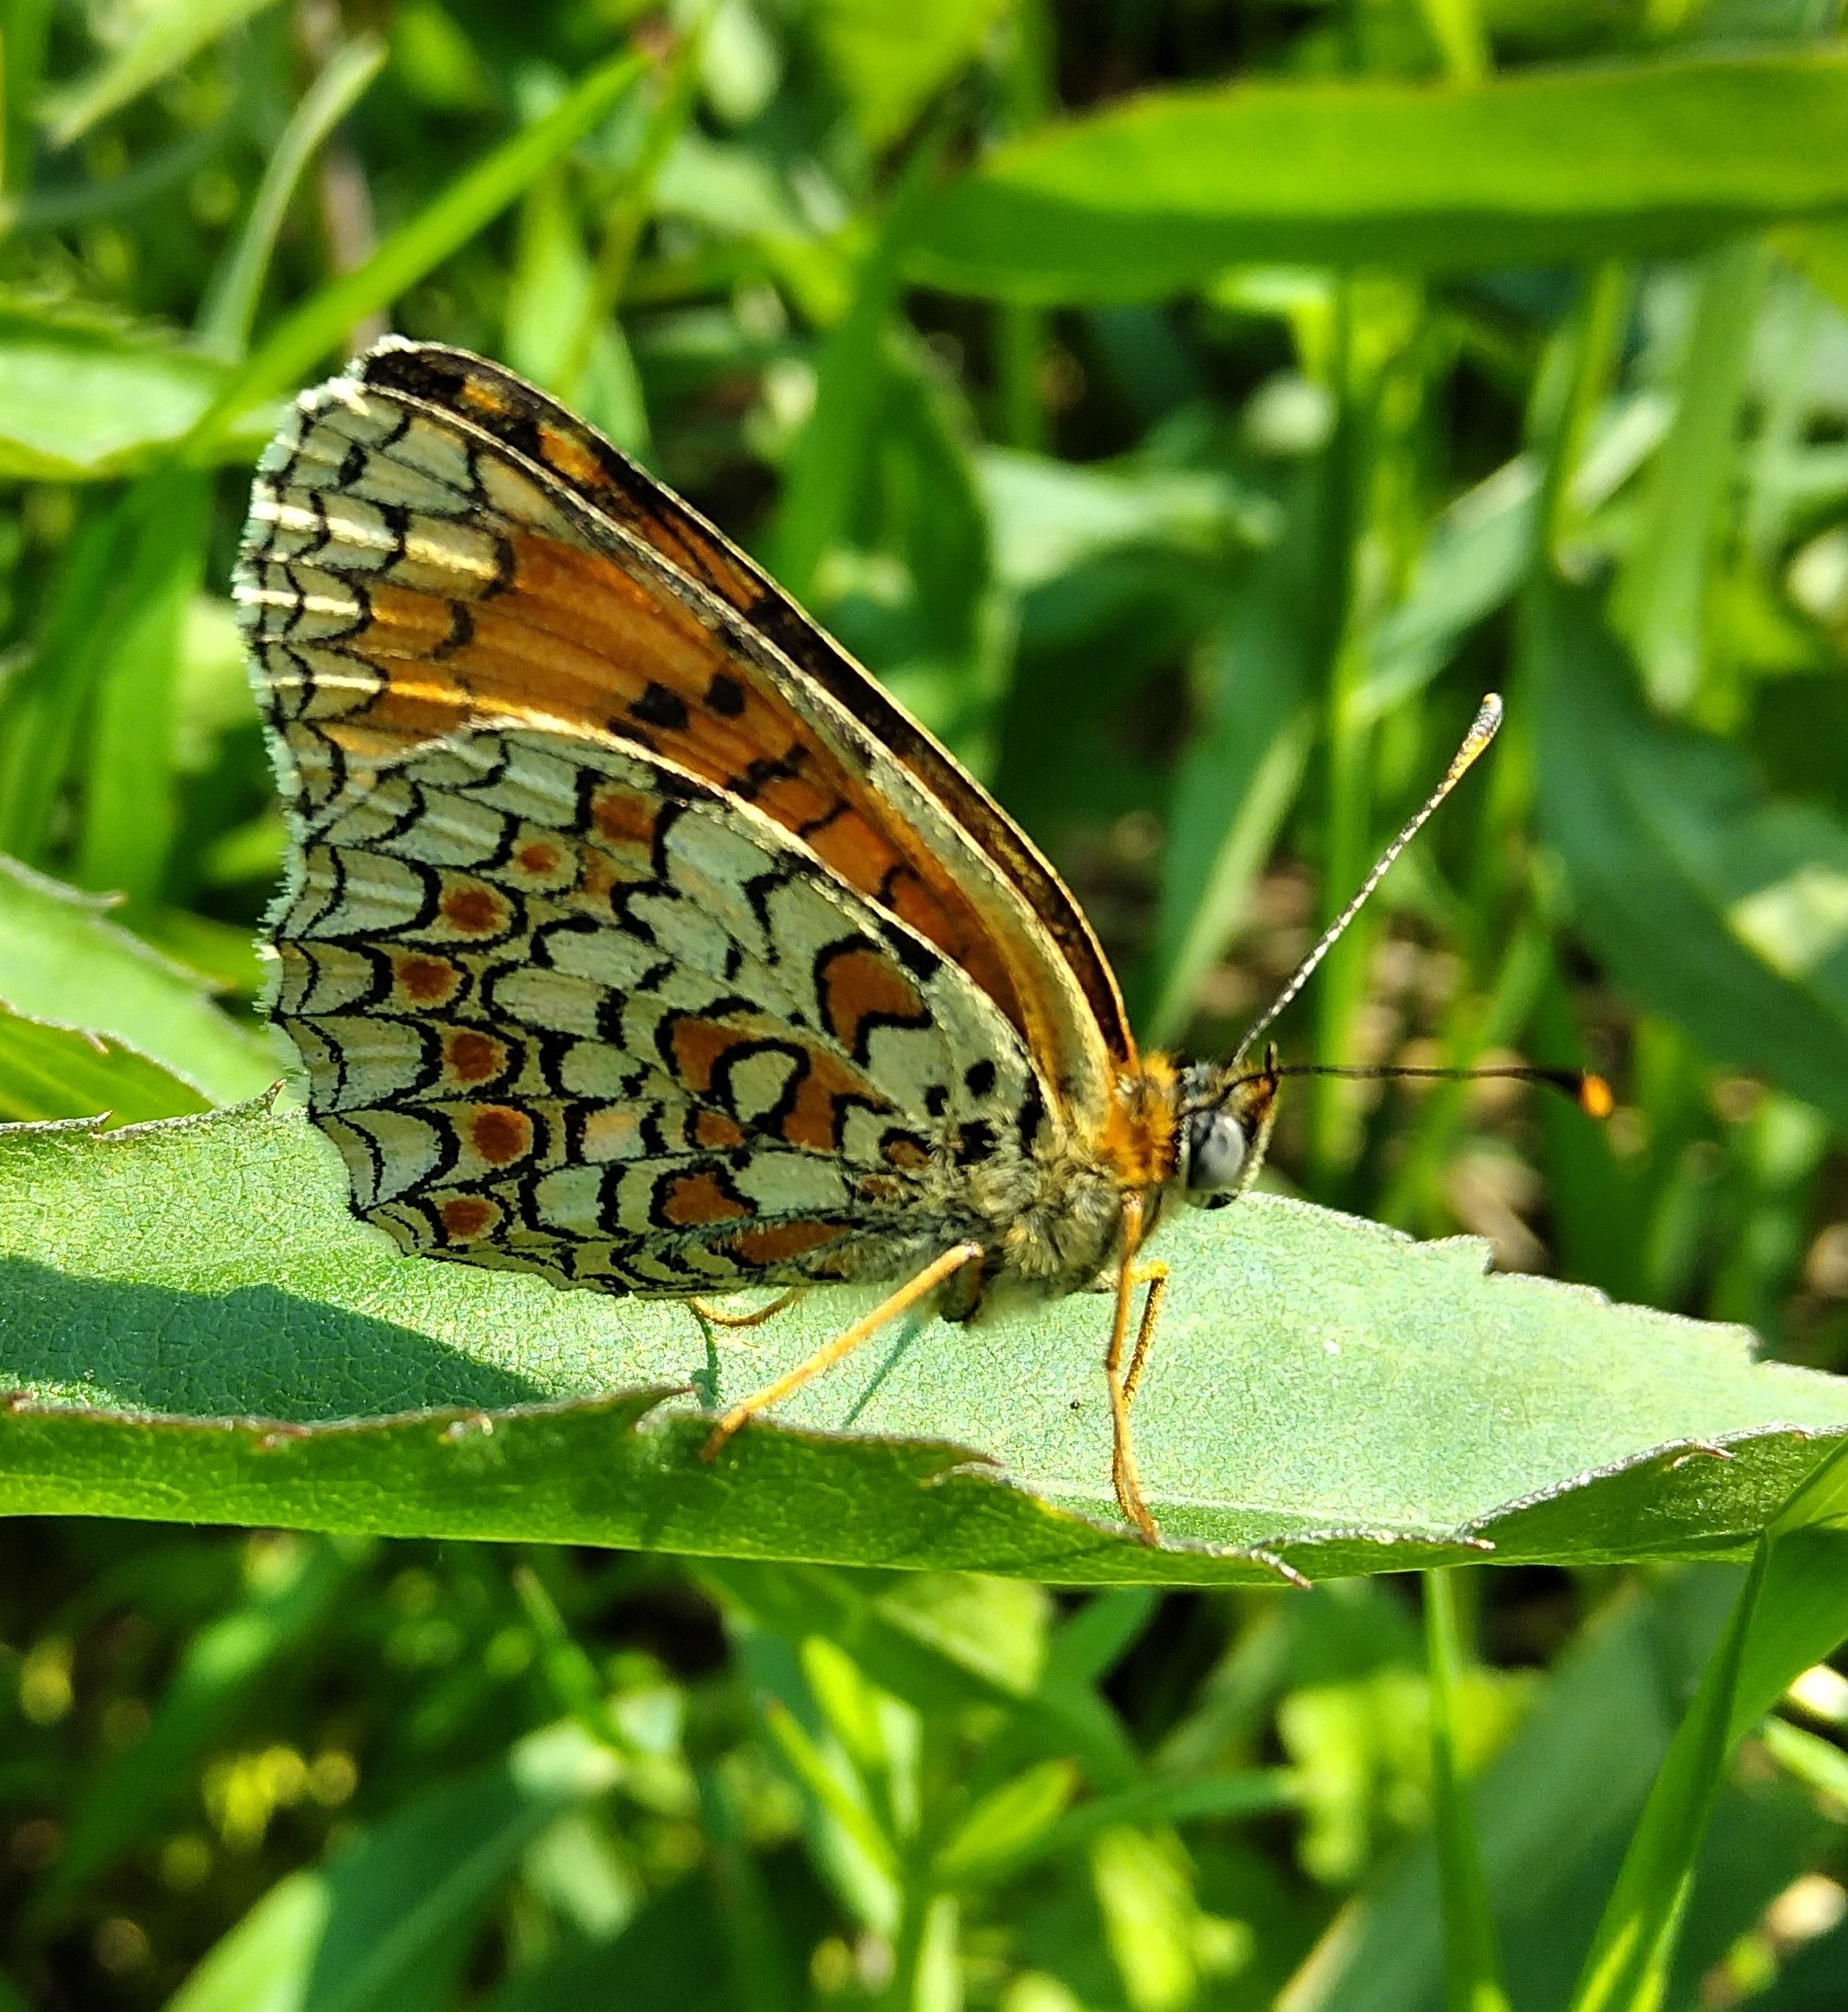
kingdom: Animalia
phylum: Arthropoda
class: Insecta
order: Lepidoptera
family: Nymphalidae
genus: Melitaea
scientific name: Melitaea phoebe
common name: Knapweed fritillary
